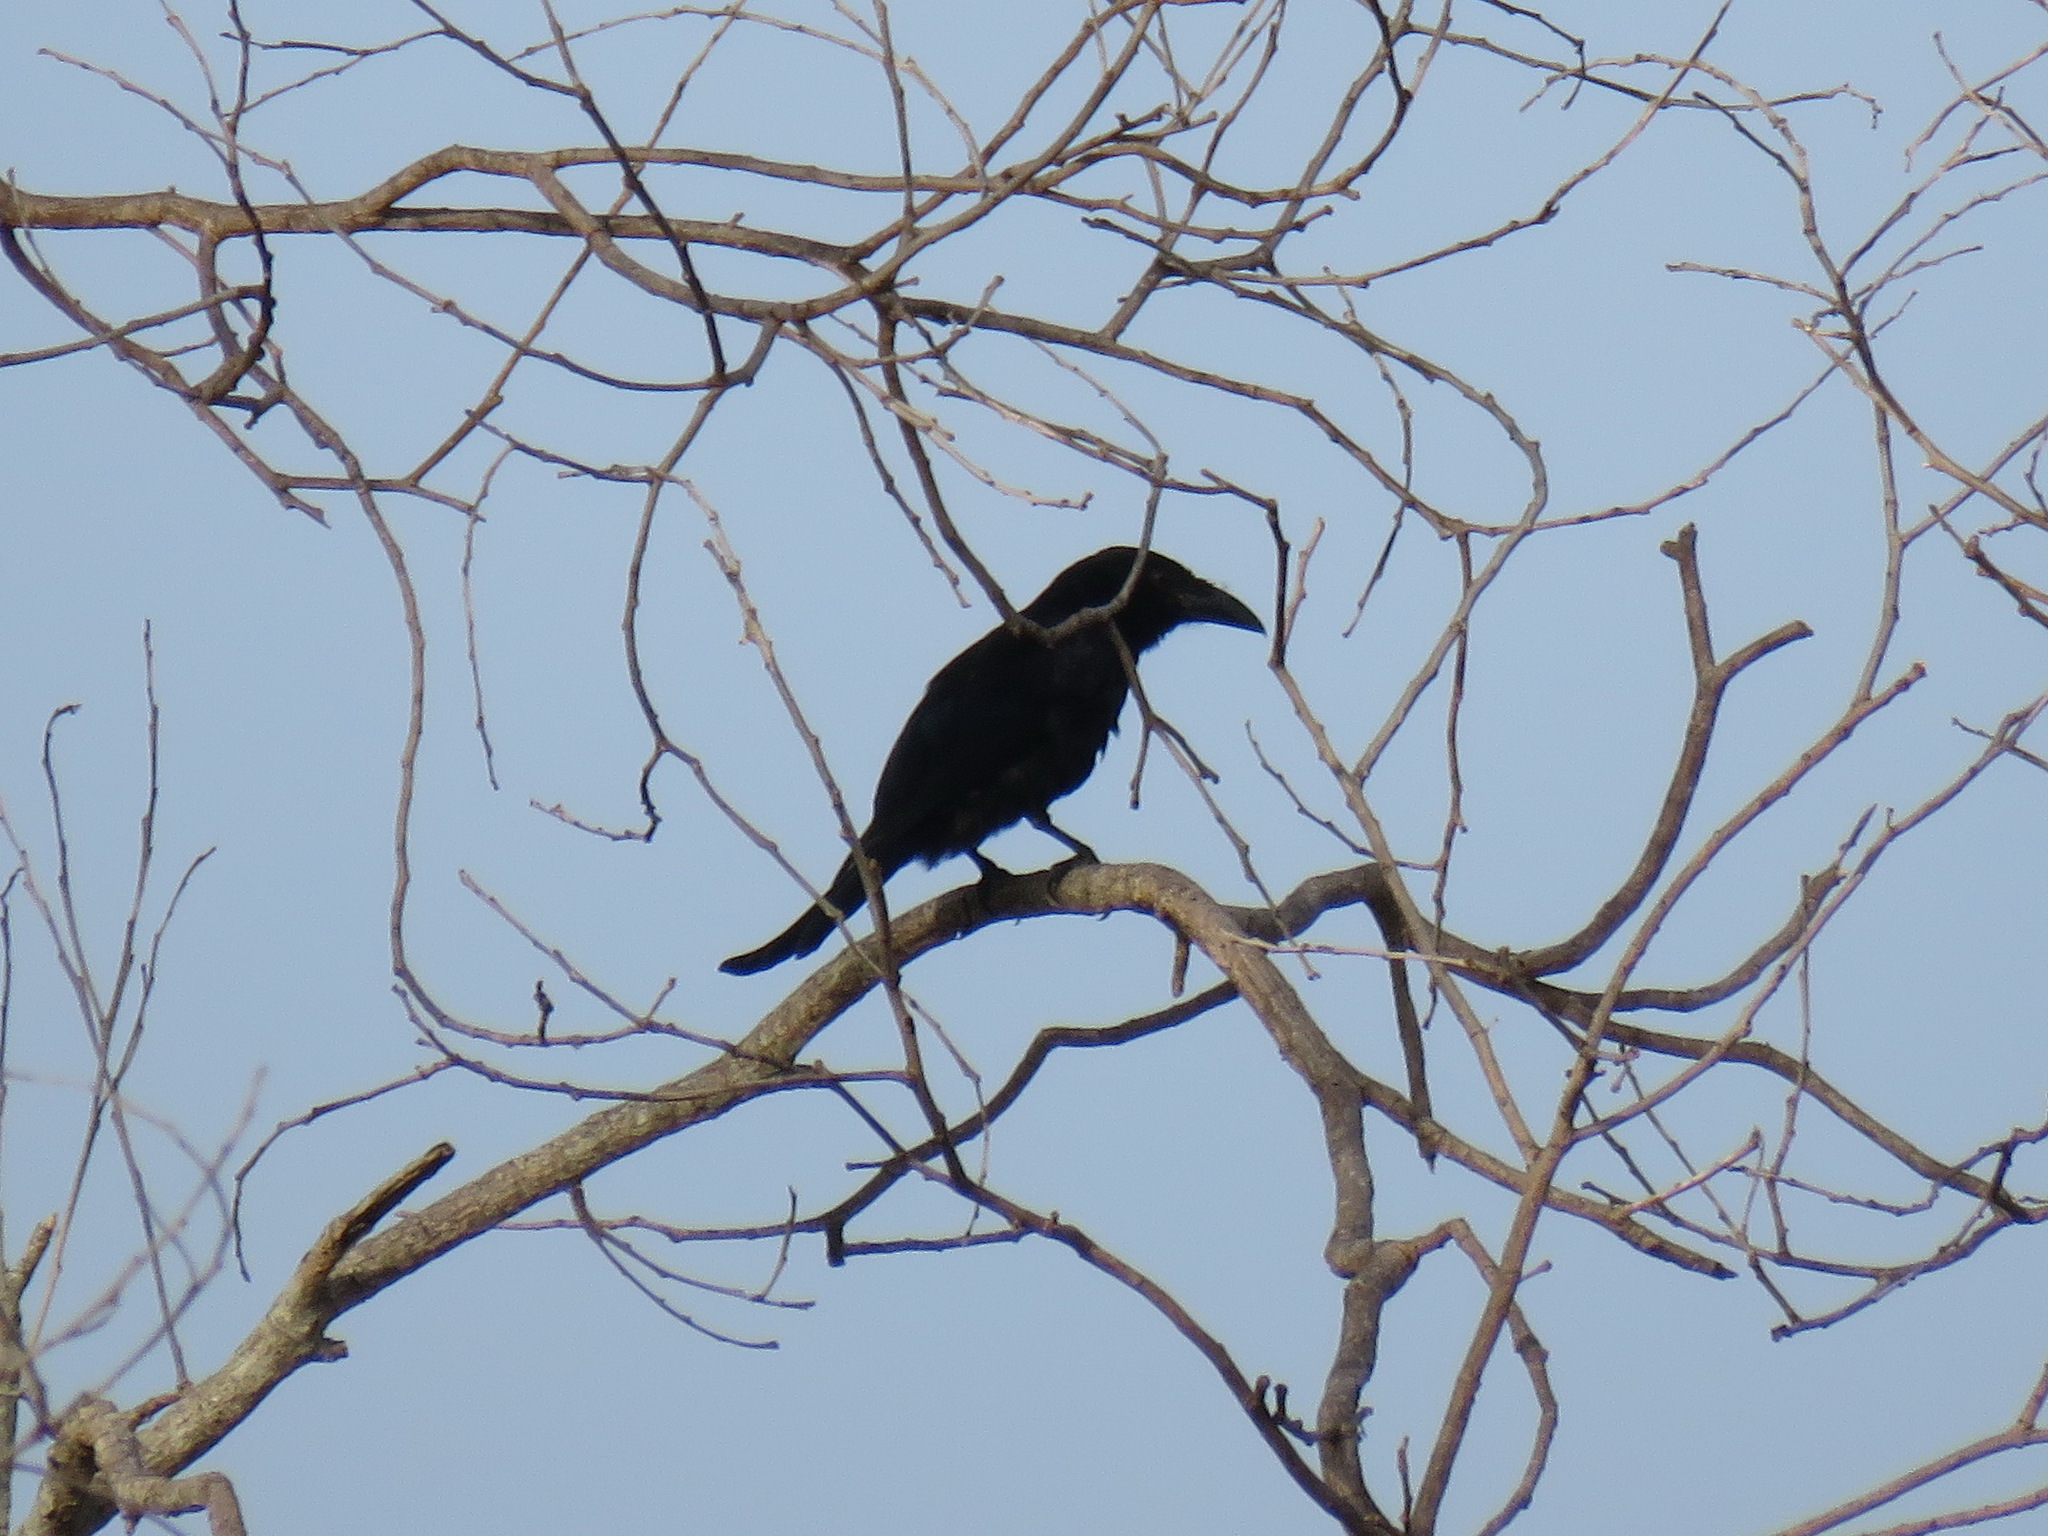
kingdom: Animalia
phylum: Chordata
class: Aves
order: Passeriformes
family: Dicruridae
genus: Dicrurus
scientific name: Dicrurus bracteatus
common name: Spangled drongo
